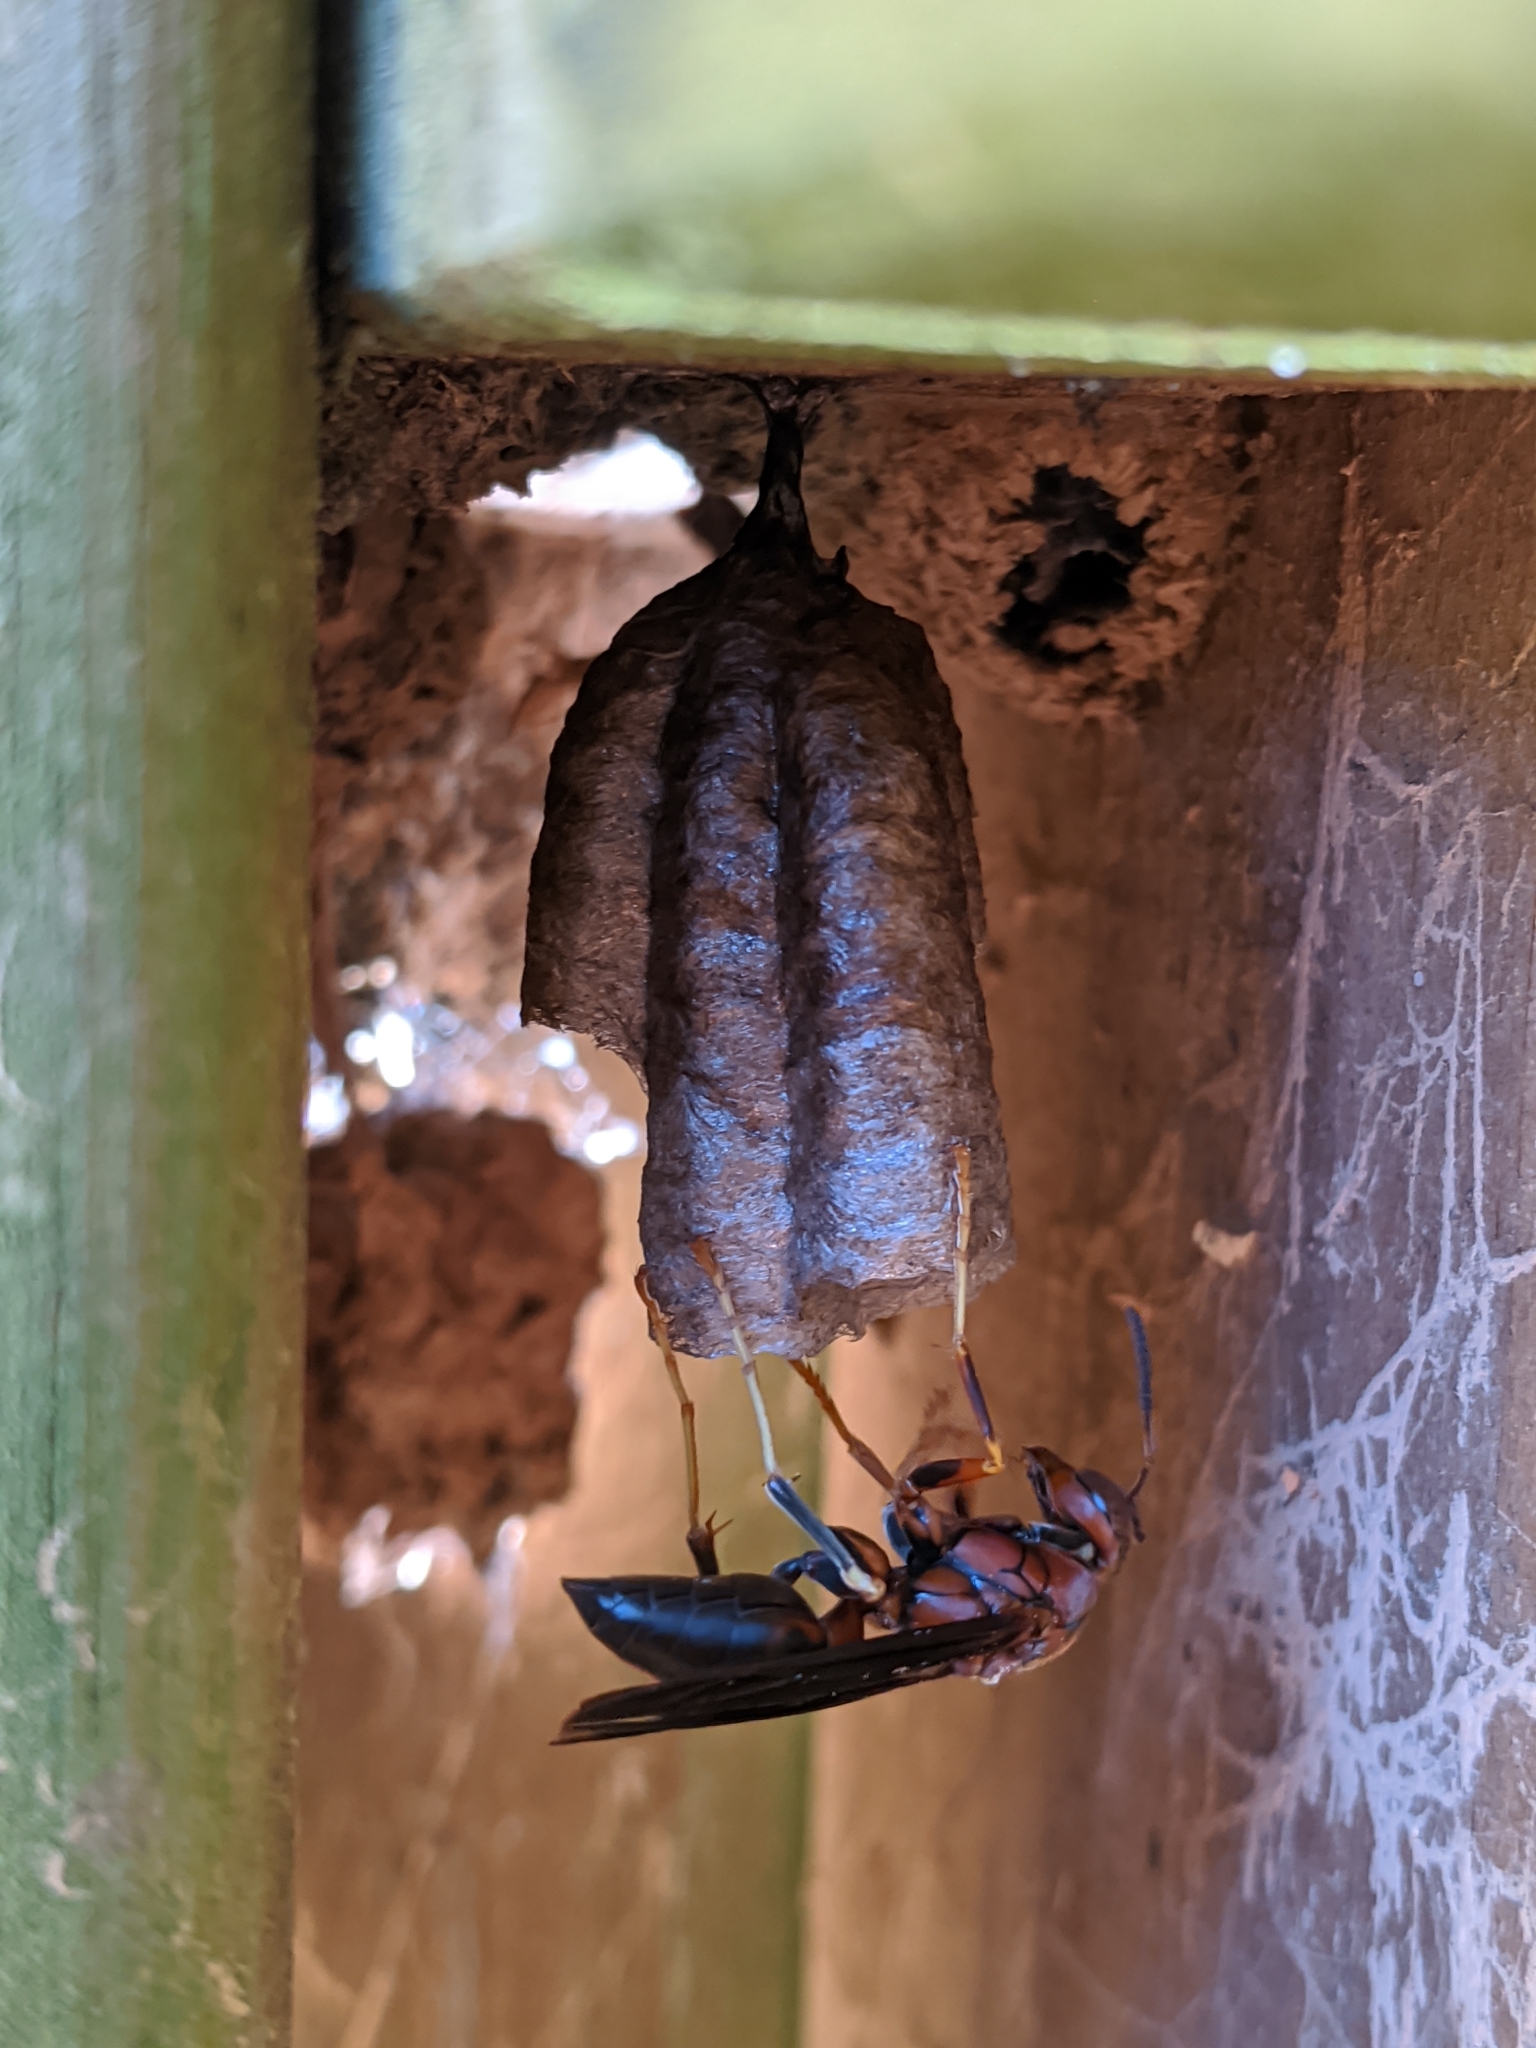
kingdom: Animalia
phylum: Arthropoda
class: Insecta
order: Hymenoptera
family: Eumenidae
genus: Polistes
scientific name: Polistes metricus
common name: Metric paper wasp
